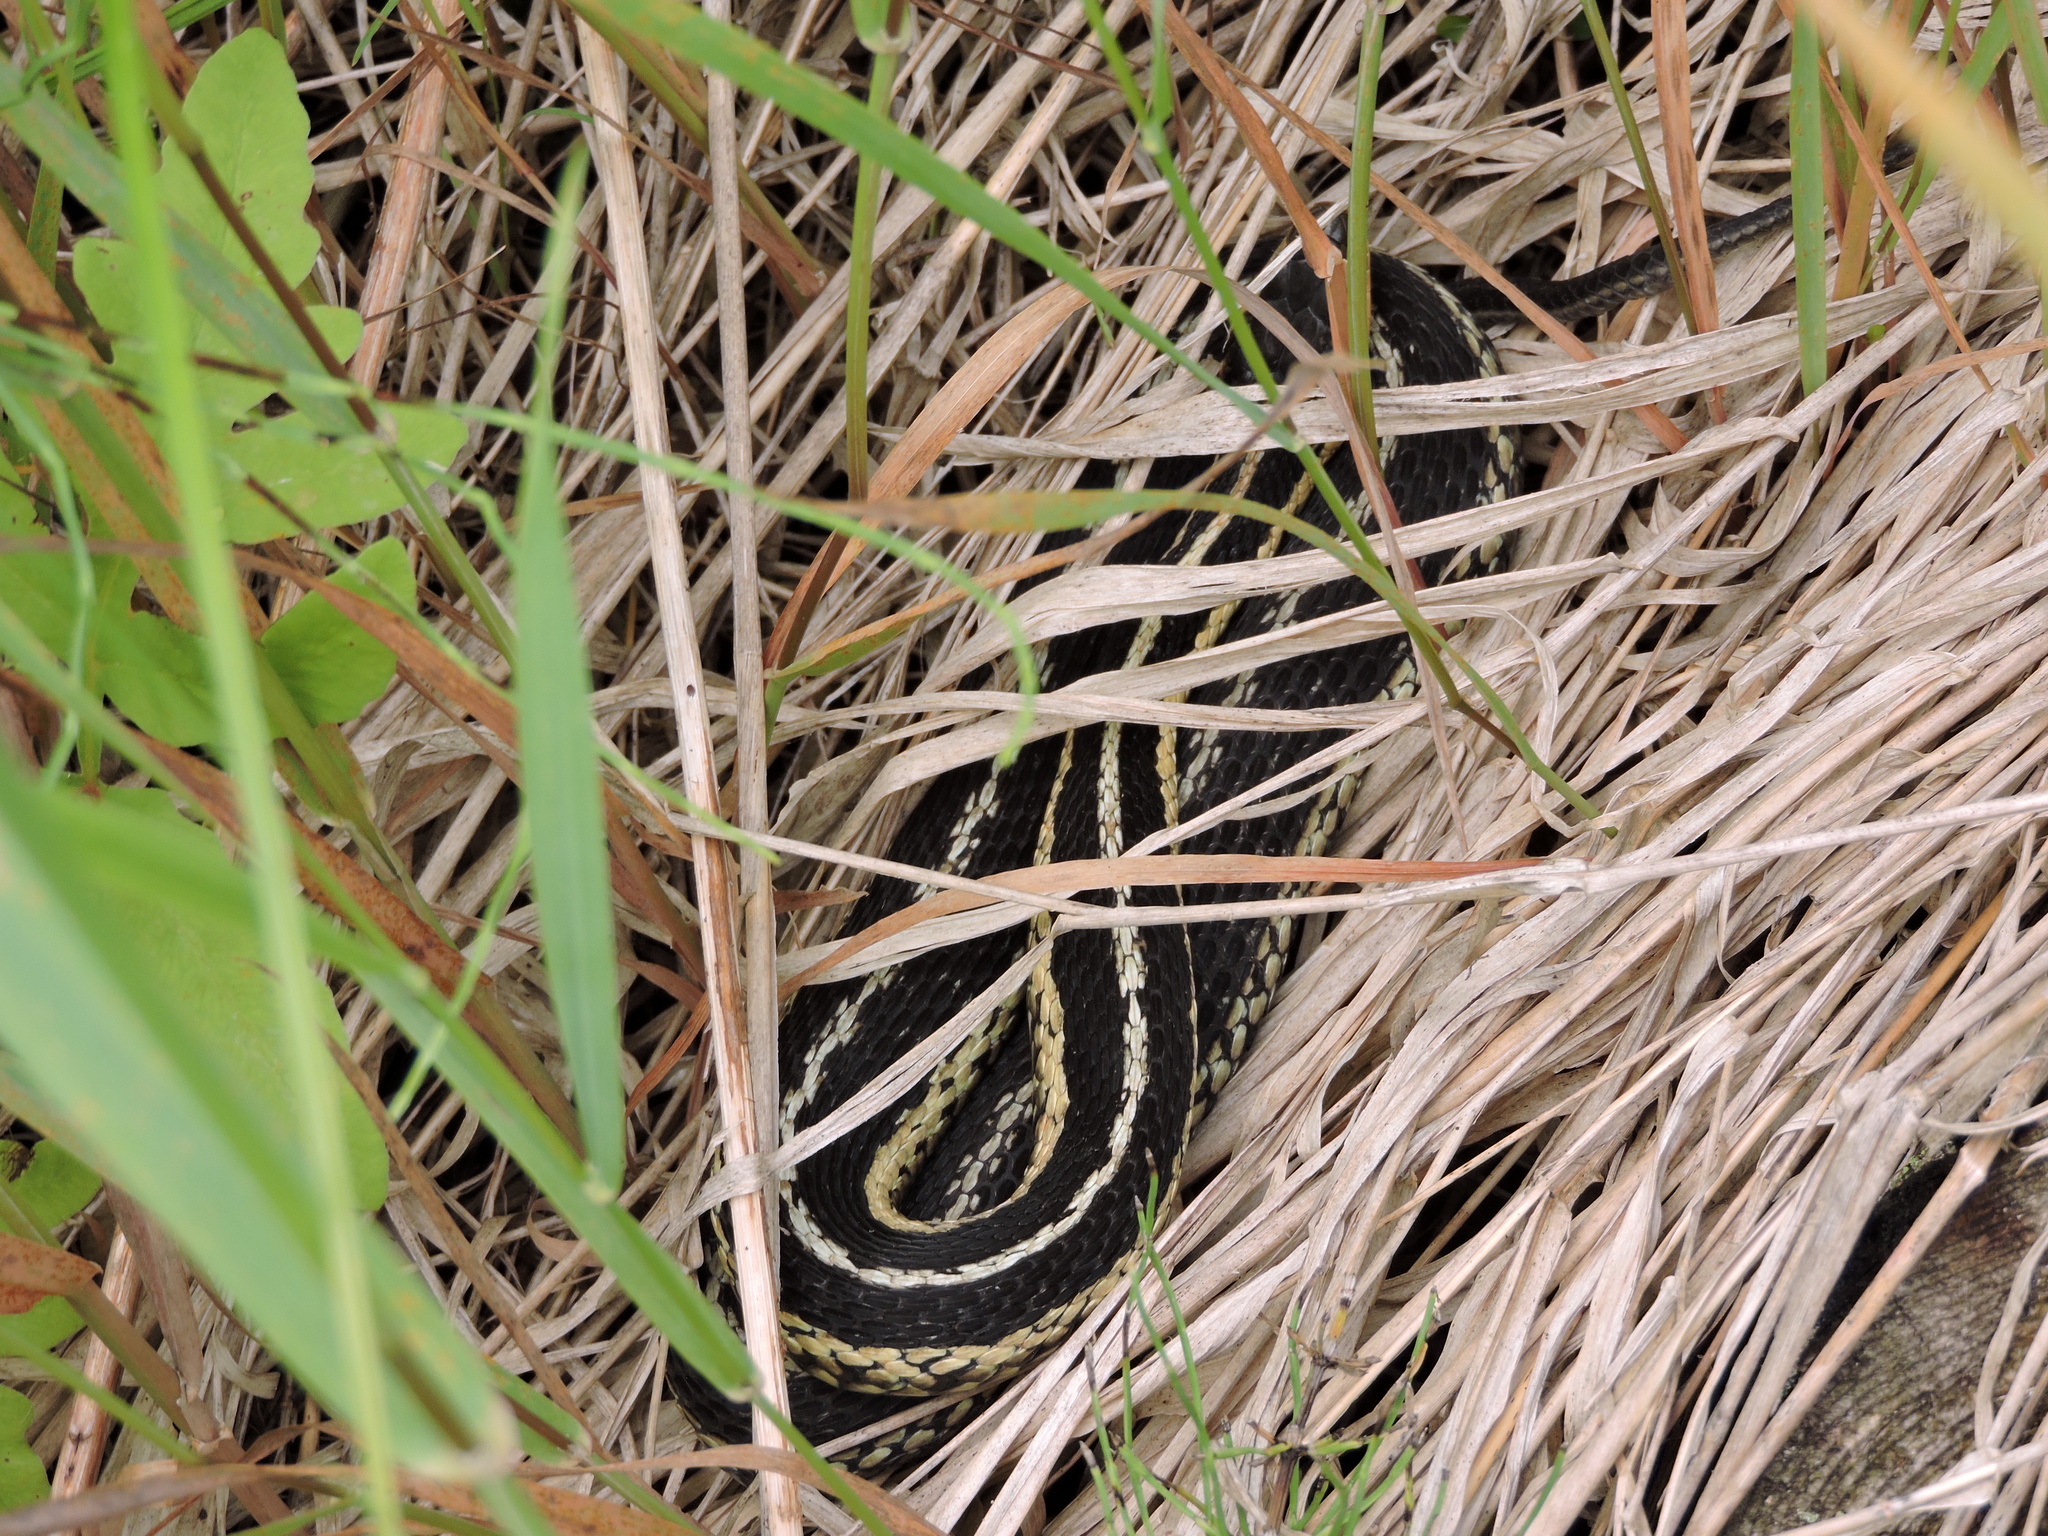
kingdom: Animalia
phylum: Chordata
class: Squamata
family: Colubridae
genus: Thamnophis
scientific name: Thamnophis sirtalis
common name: Common garter snake
